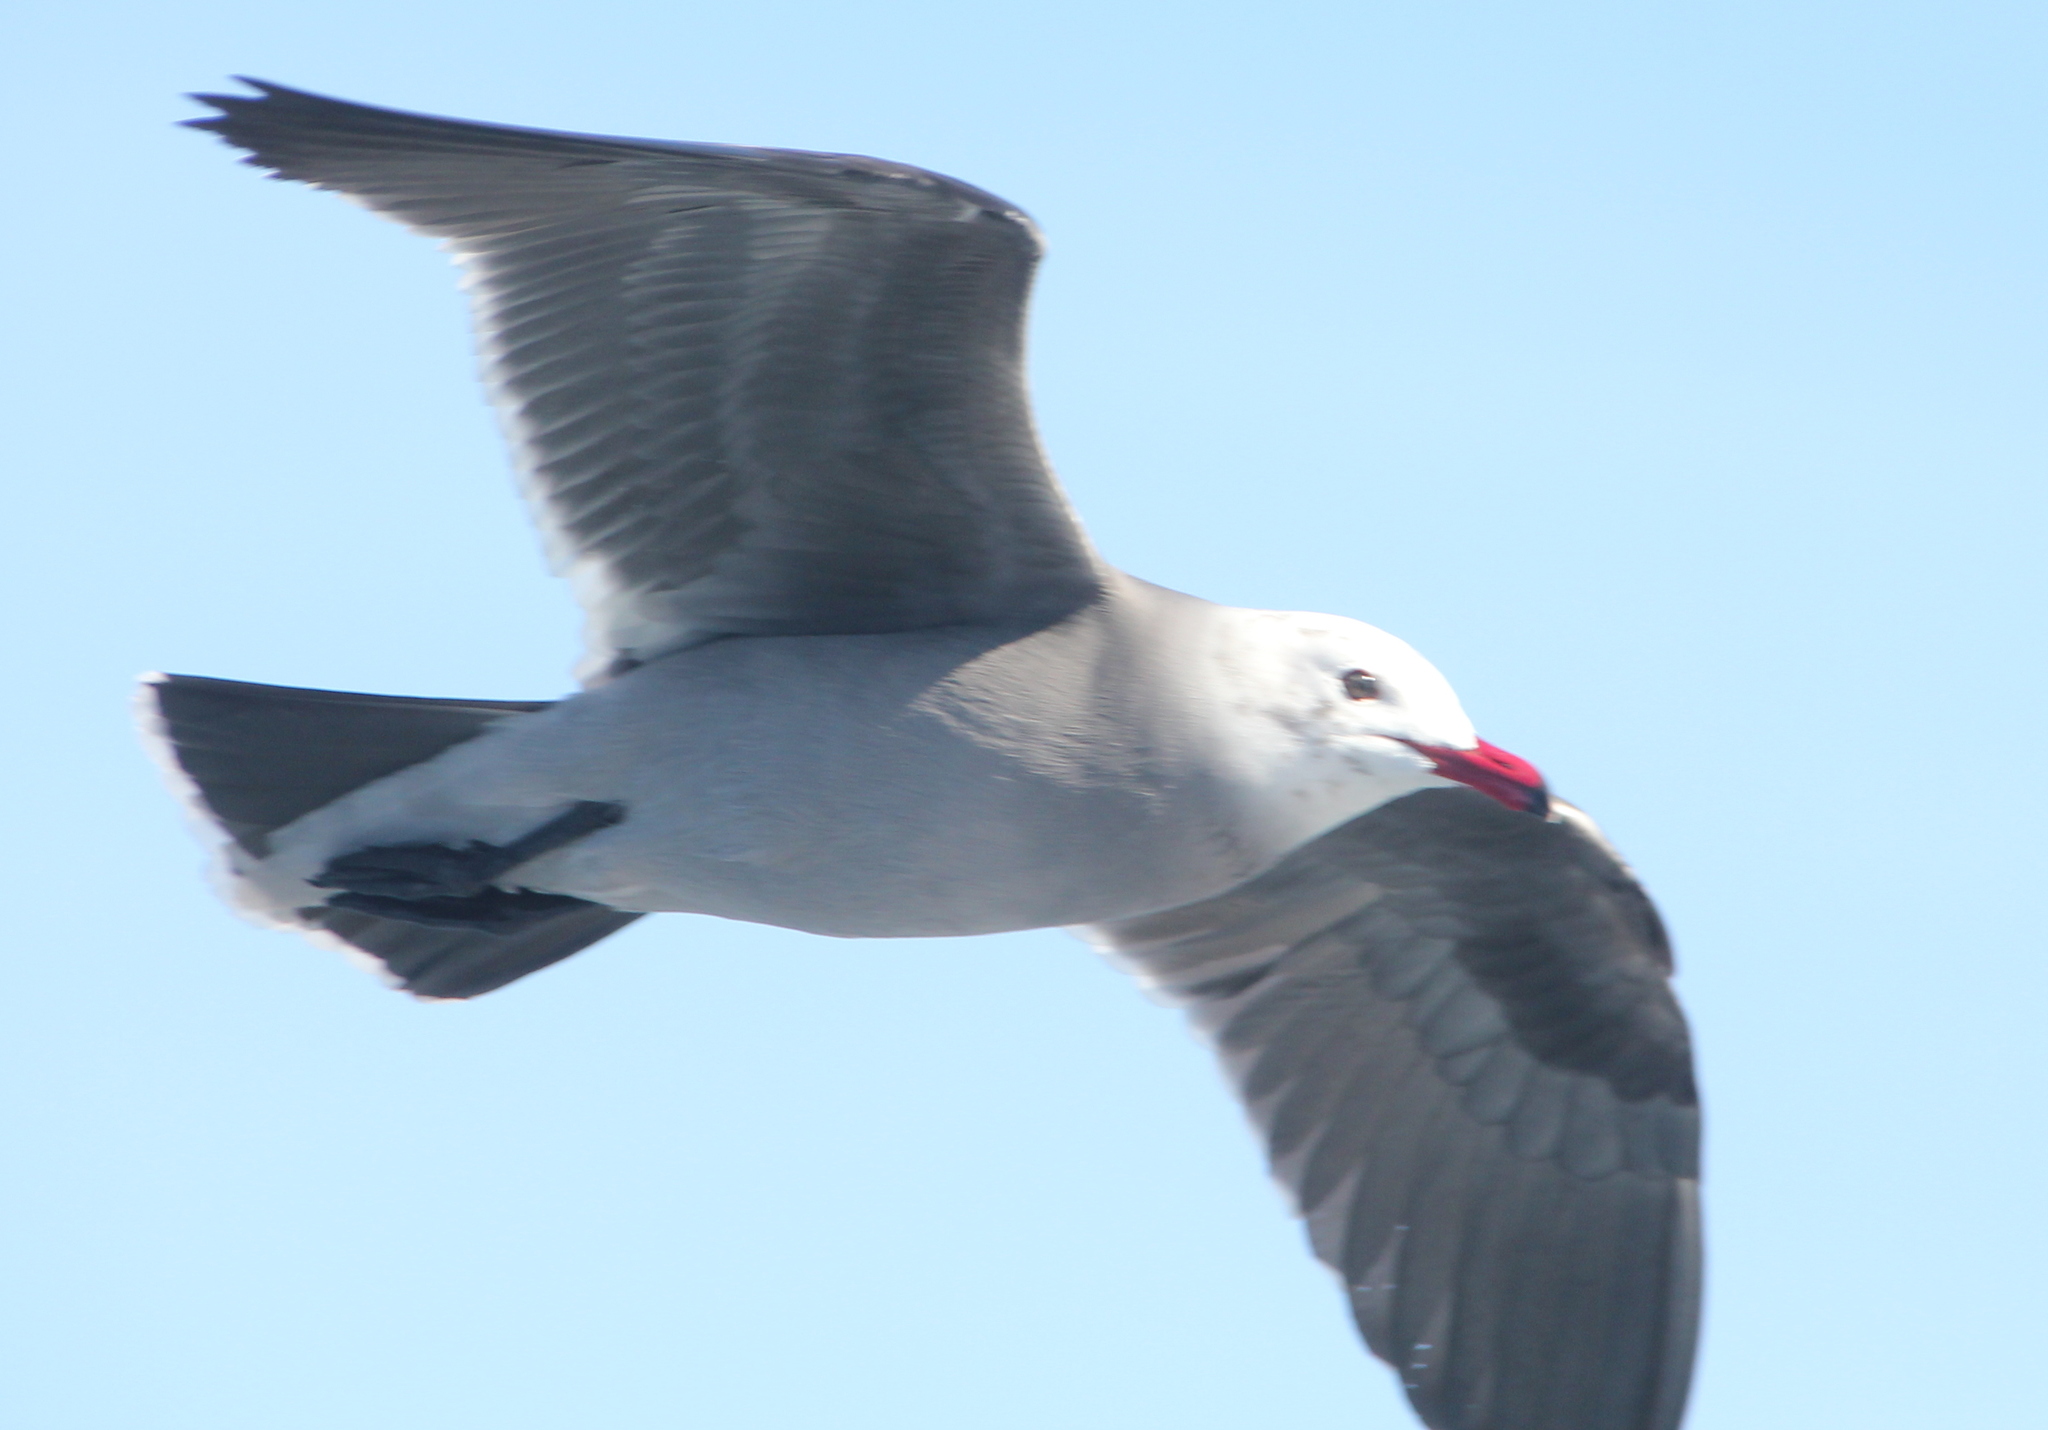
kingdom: Animalia
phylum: Chordata
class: Aves
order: Charadriiformes
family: Laridae
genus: Larus
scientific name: Larus heermanni
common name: Heermann's gull
